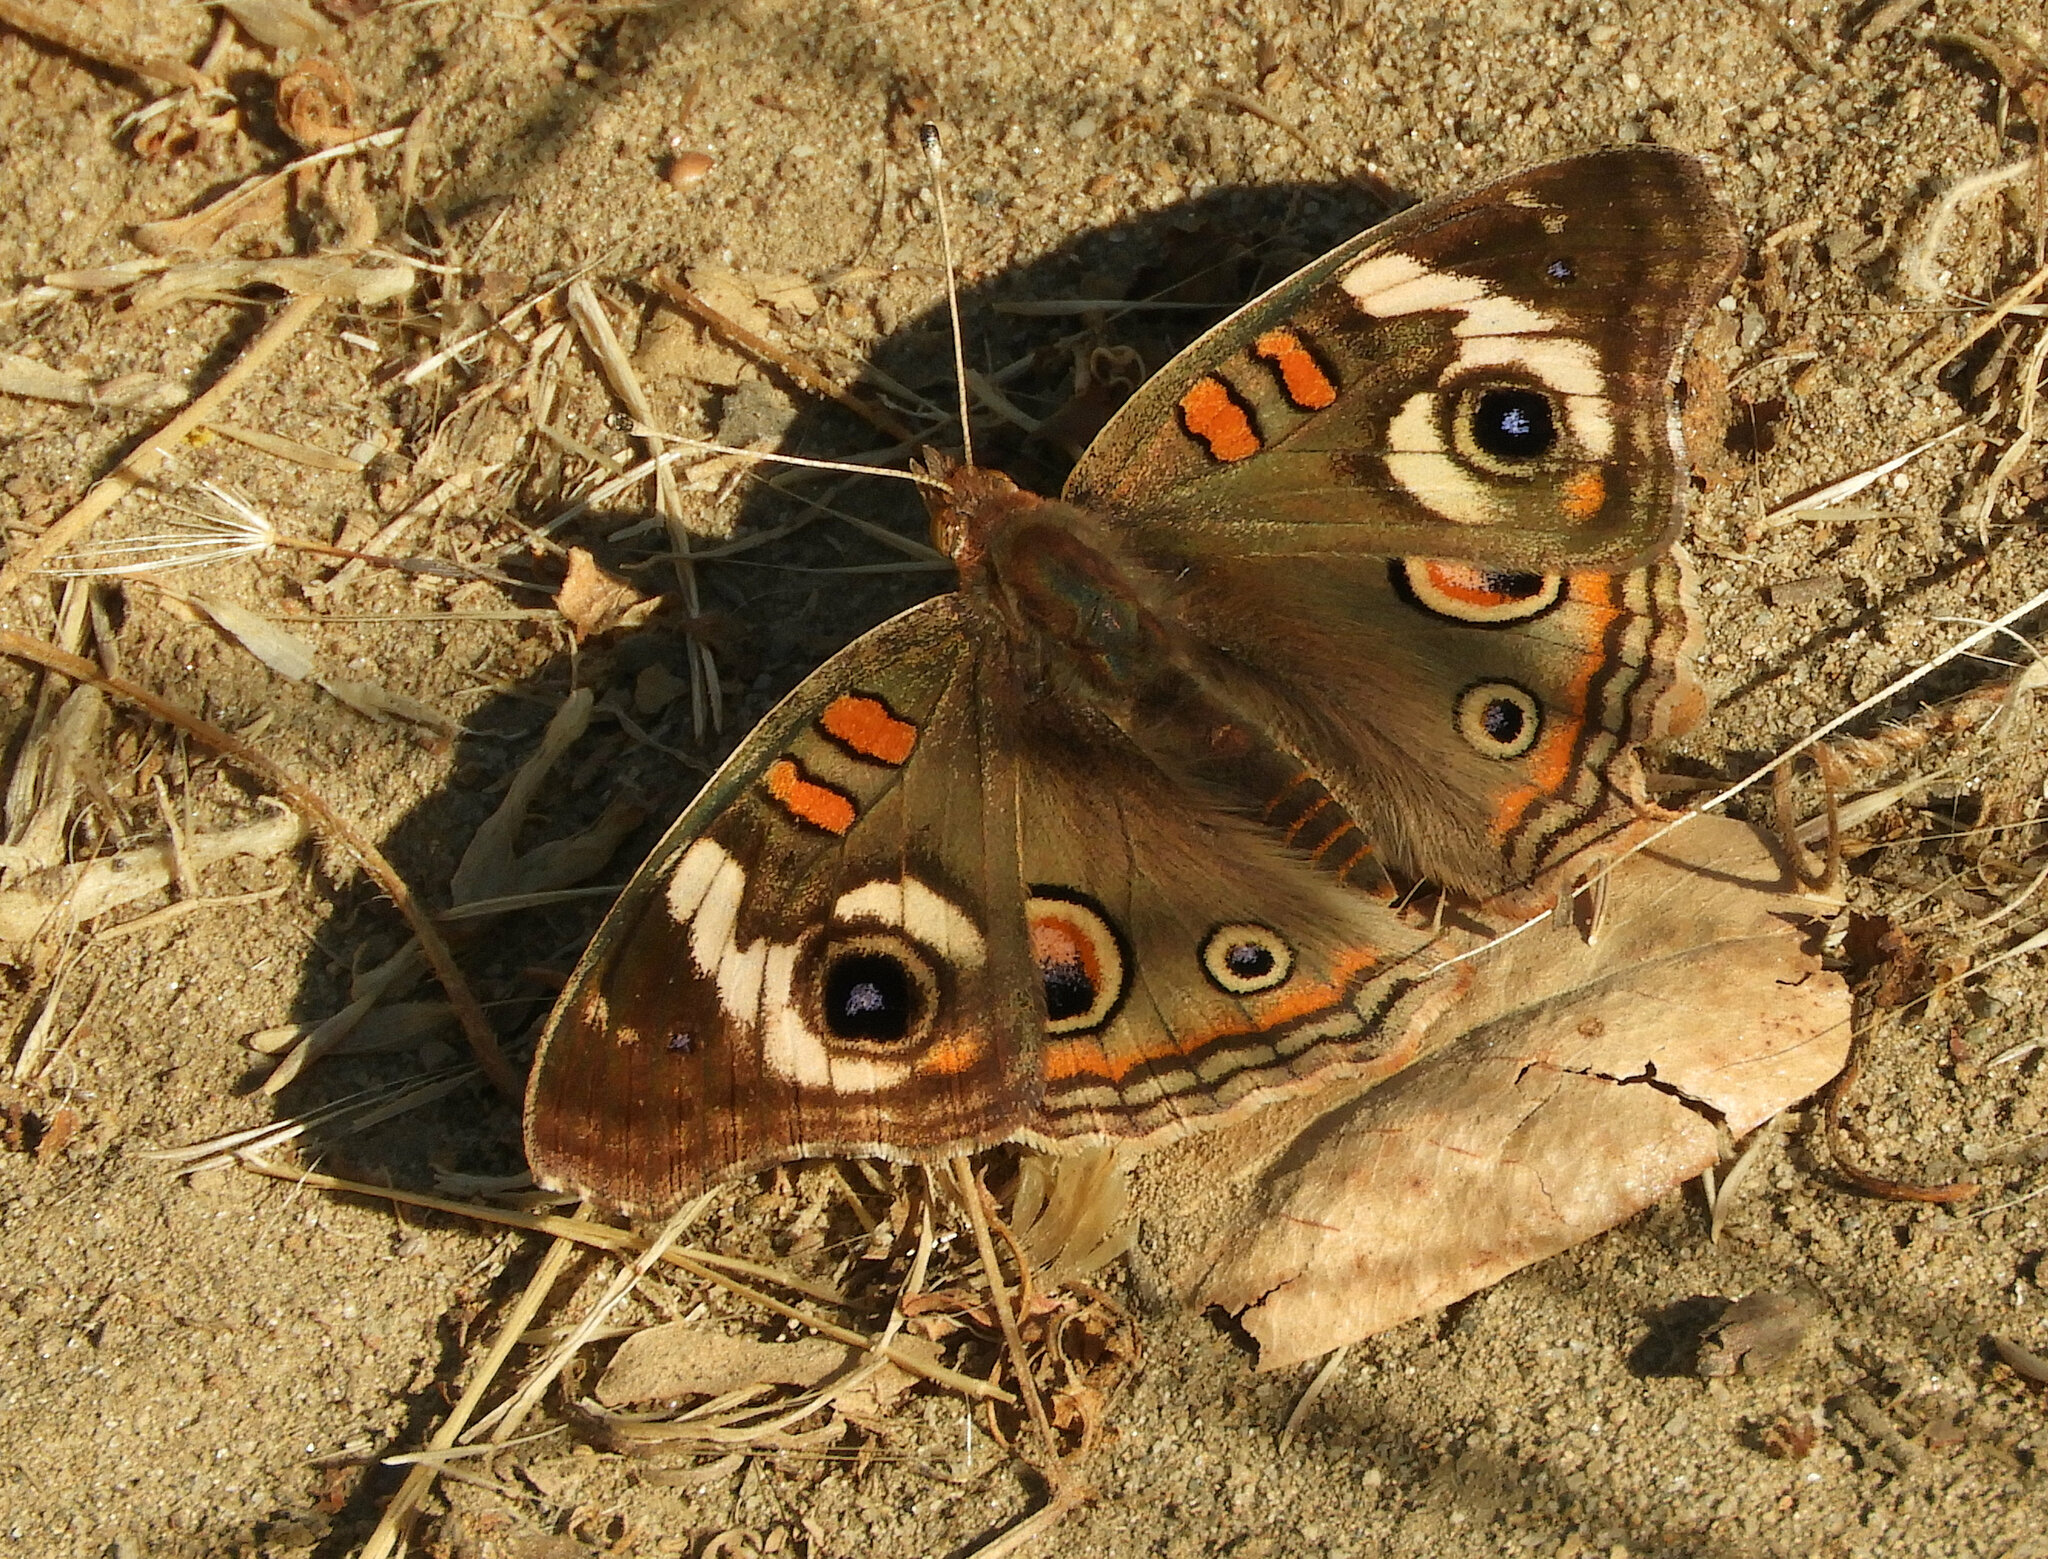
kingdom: Animalia
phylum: Arthropoda
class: Insecta
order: Lepidoptera
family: Nymphalidae
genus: Junonia
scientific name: Junonia grisea
